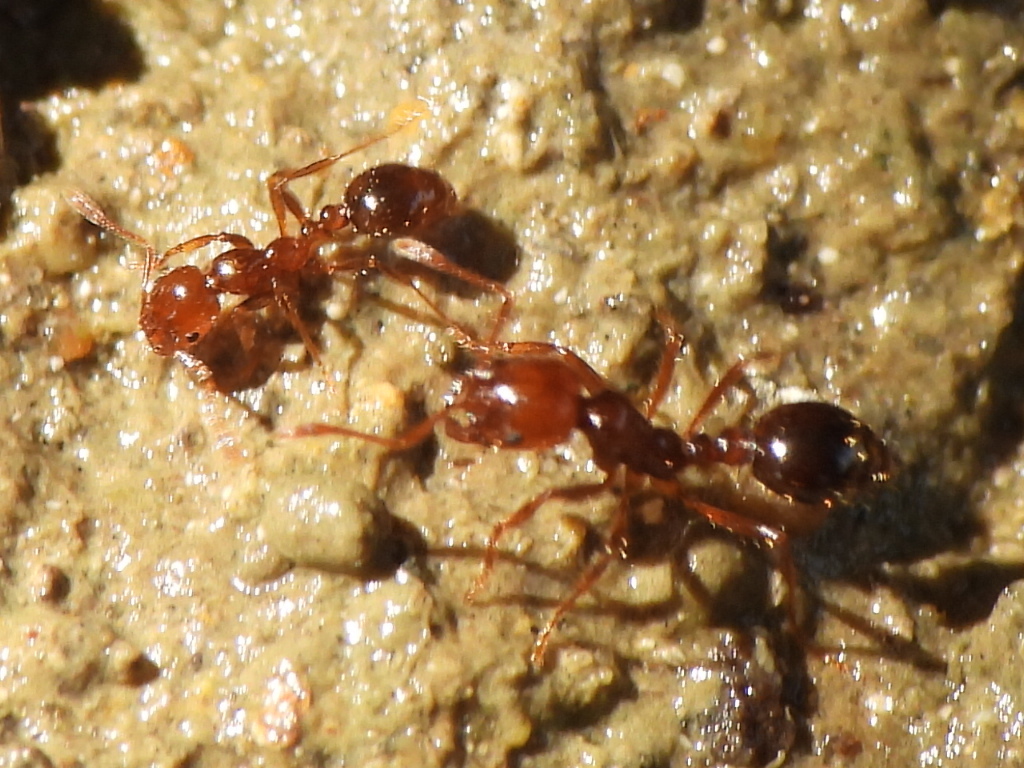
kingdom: Animalia
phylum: Arthropoda
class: Insecta
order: Hymenoptera
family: Formicidae
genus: Solenopsis
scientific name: Solenopsis invicta
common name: Red imported fire ant
